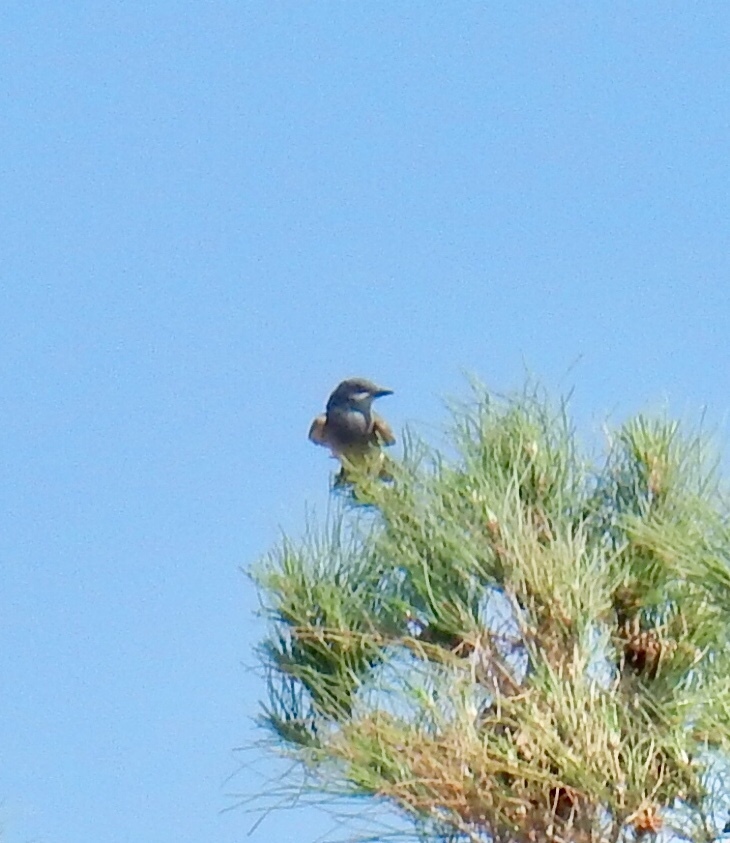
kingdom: Animalia
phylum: Chordata
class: Aves
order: Passeriformes
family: Tyrannidae
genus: Tyrannus
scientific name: Tyrannus vociferans
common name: Cassin's kingbird
